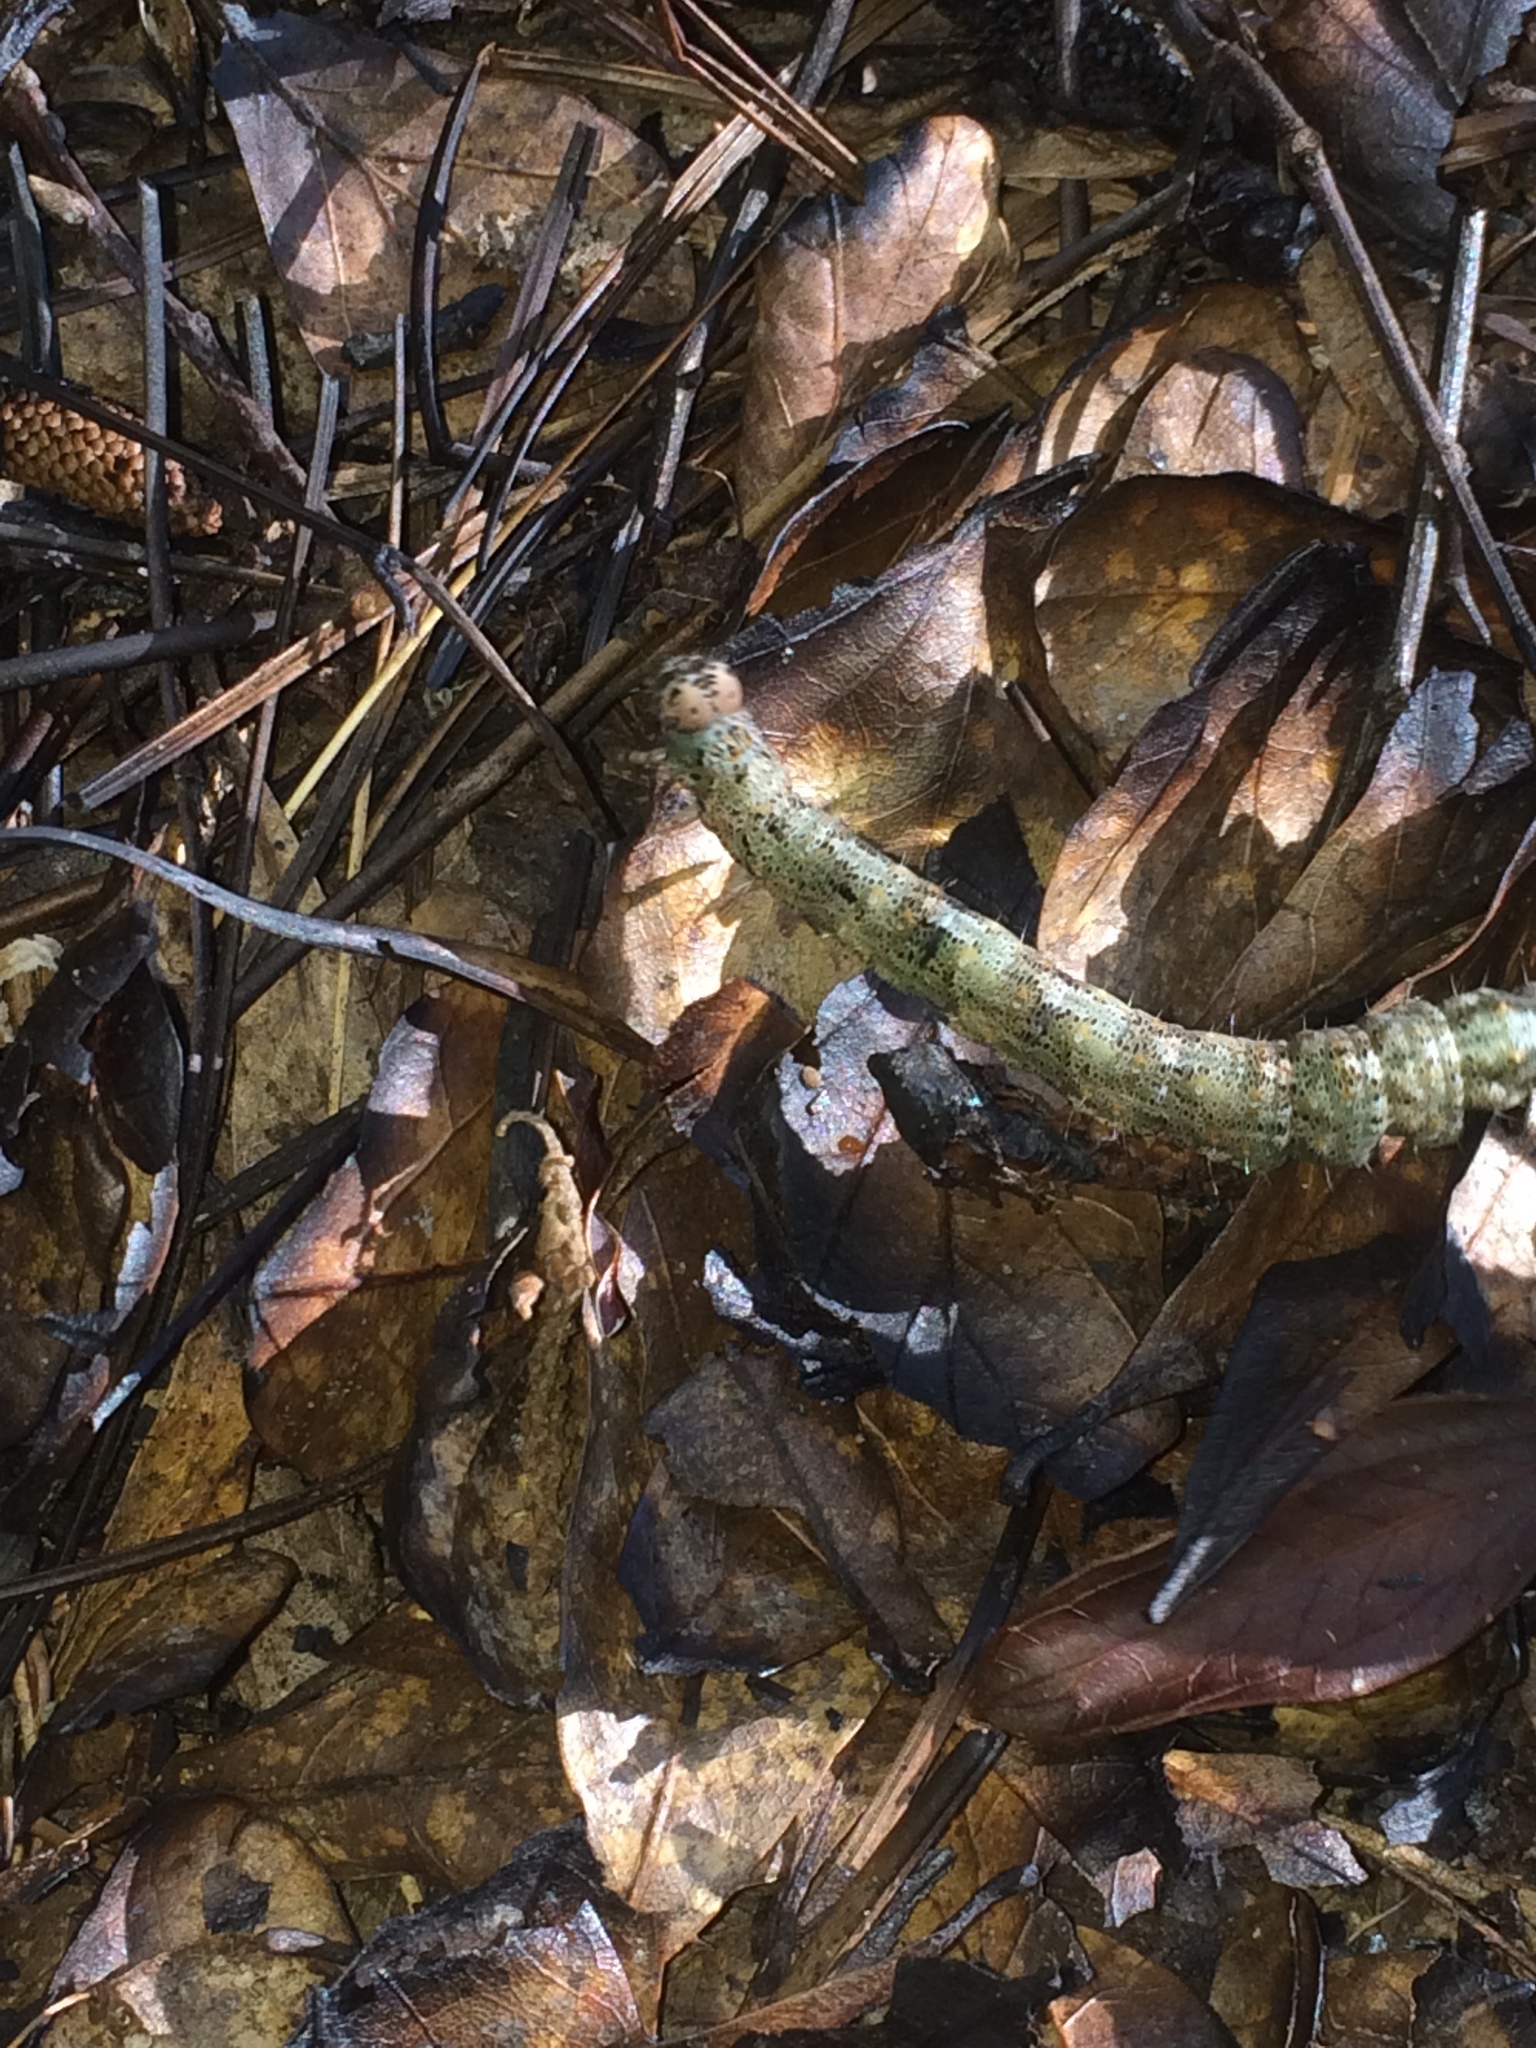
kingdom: Animalia
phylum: Arthropoda
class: Insecta
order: Lepidoptera
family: Erebidae
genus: Metria
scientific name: Metria amella
